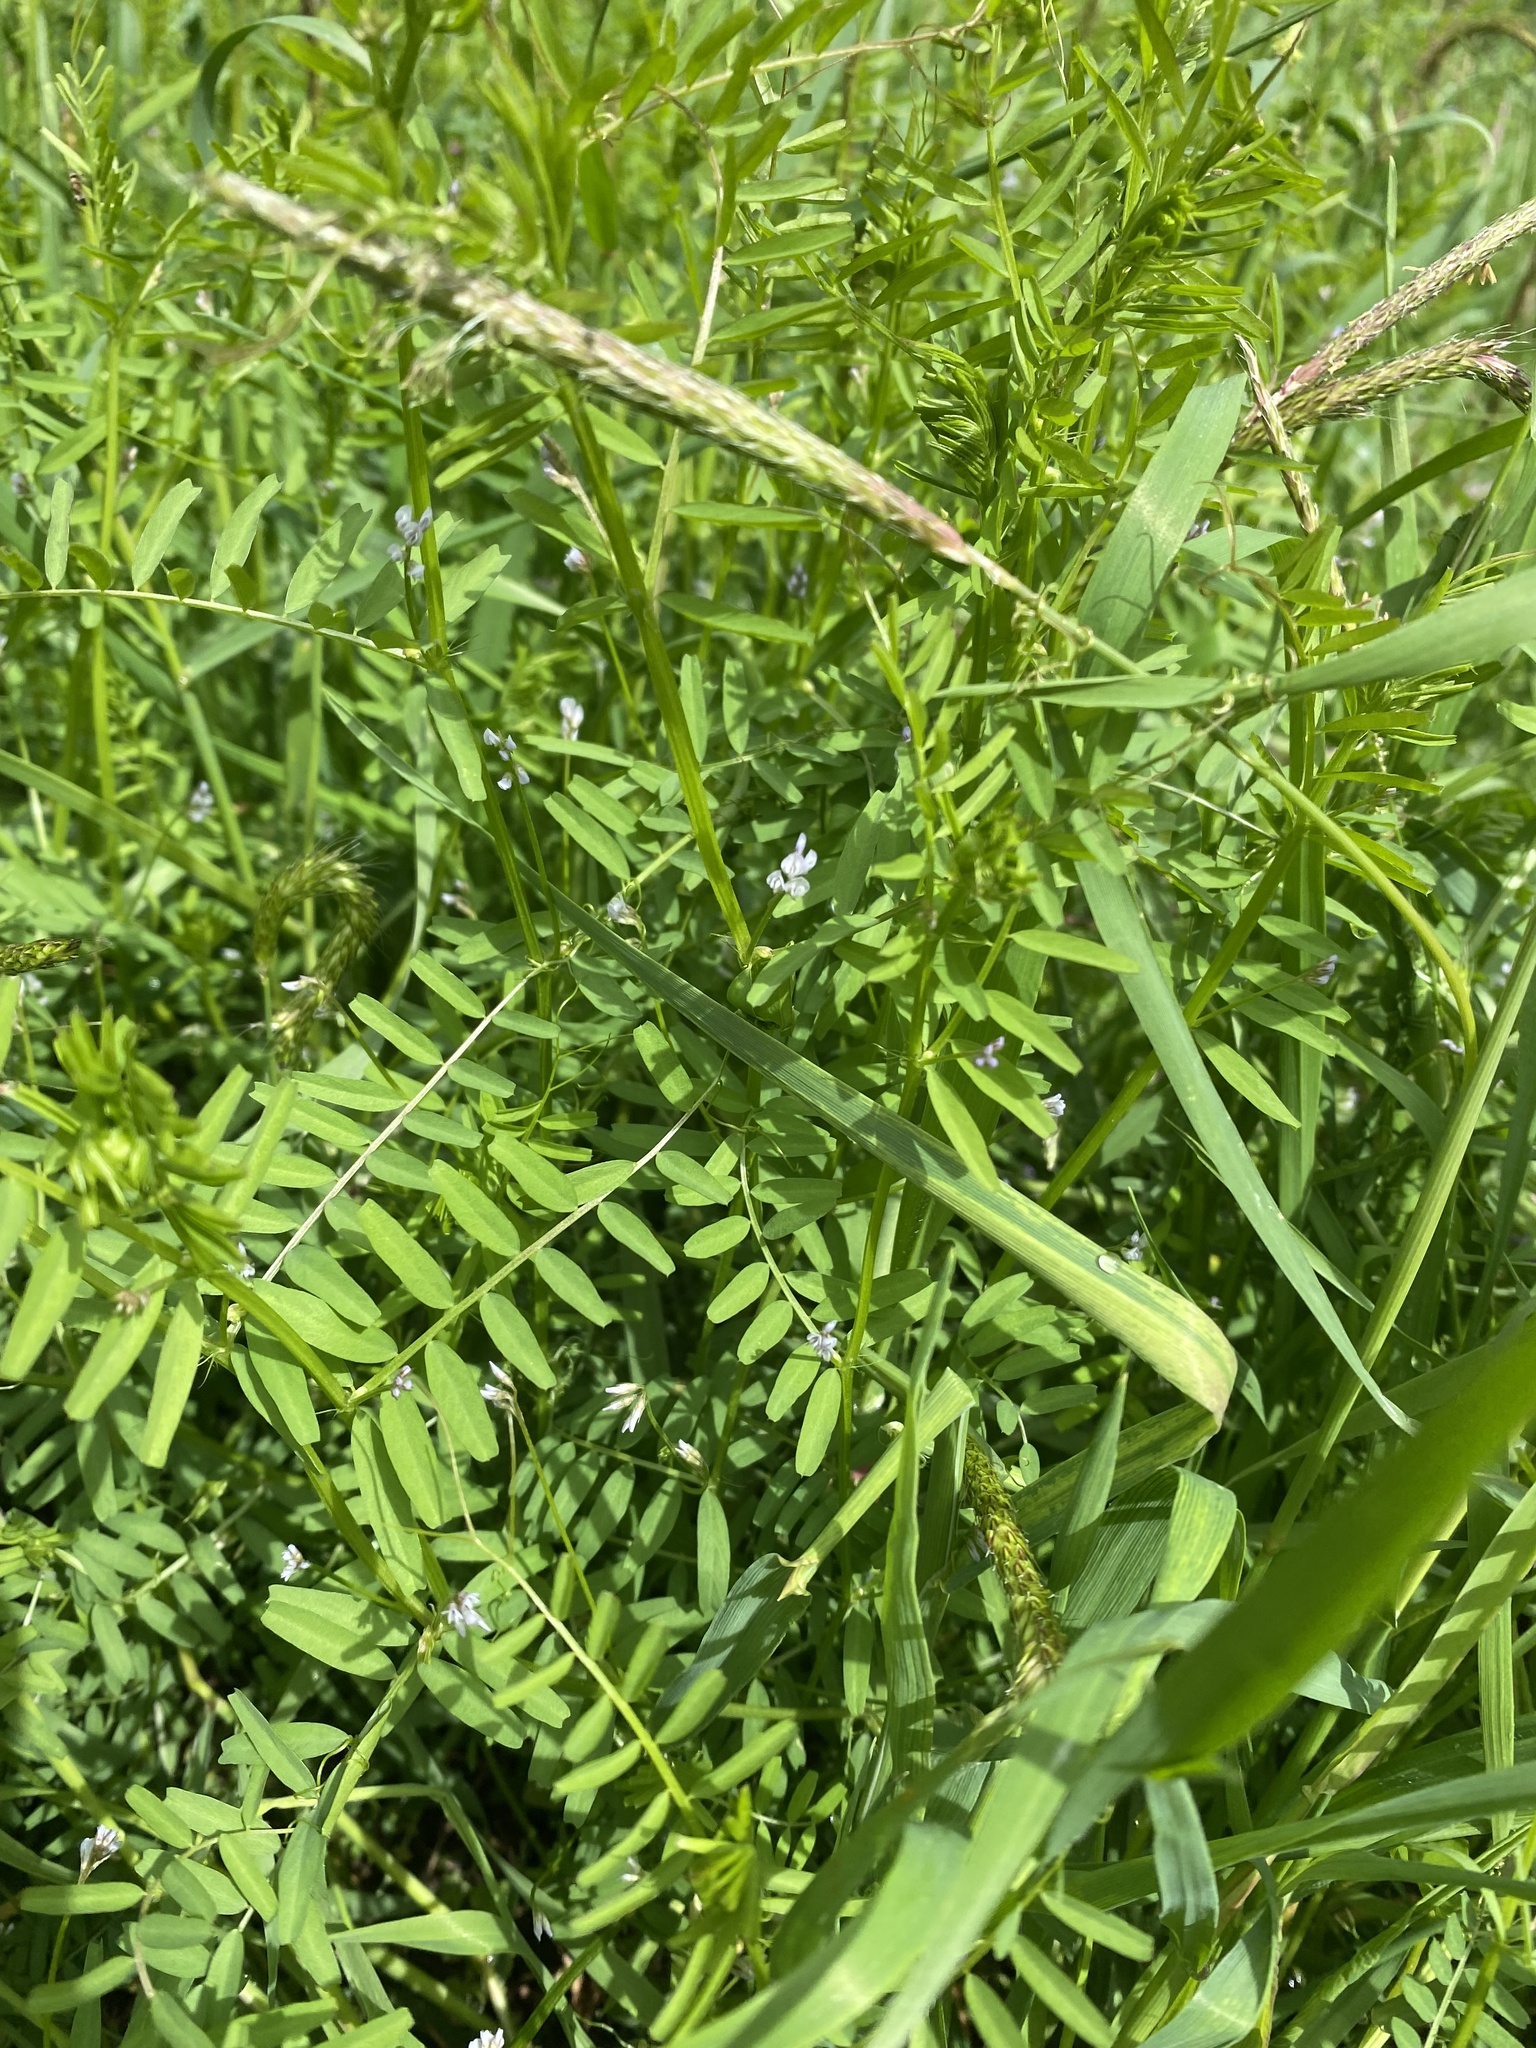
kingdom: Plantae
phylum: Tracheophyta
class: Magnoliopsida
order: Fabales
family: Fabaceae
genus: Vicia
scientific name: Vicia hirsuta
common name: Tiny vetch
